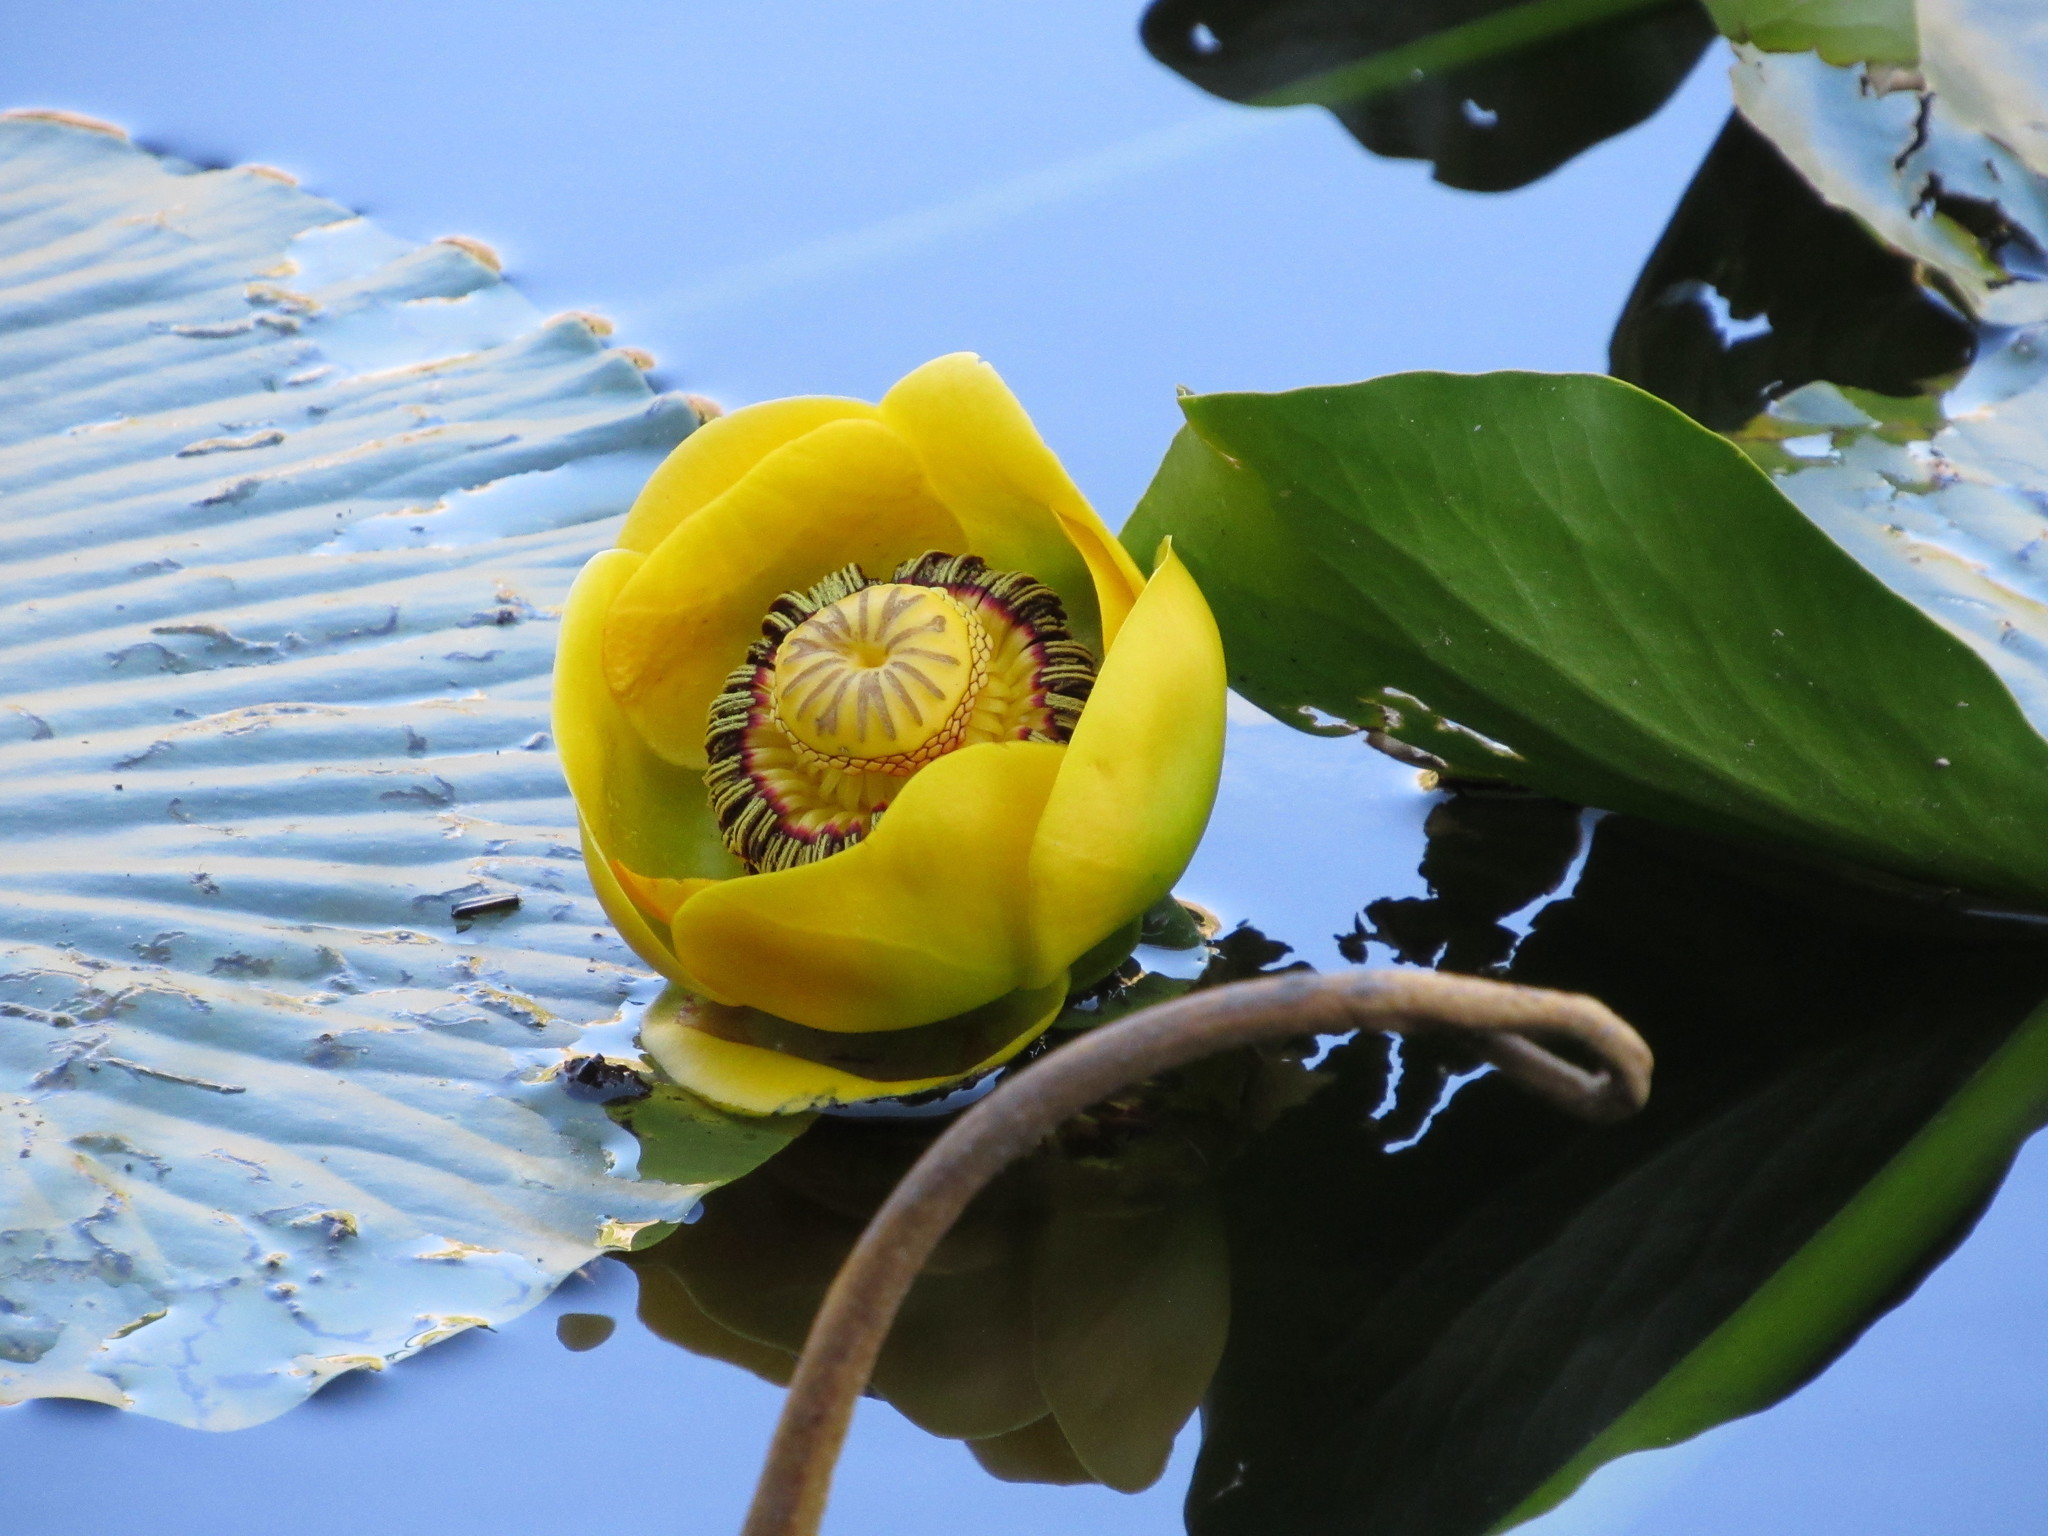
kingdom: Plantae
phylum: Tracheophyta
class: Magnoliopsida
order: Nymphaeales
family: Nymphaeaceae
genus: Nuphar
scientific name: Nuphar polysepala
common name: Rocky mountain cow-lily
